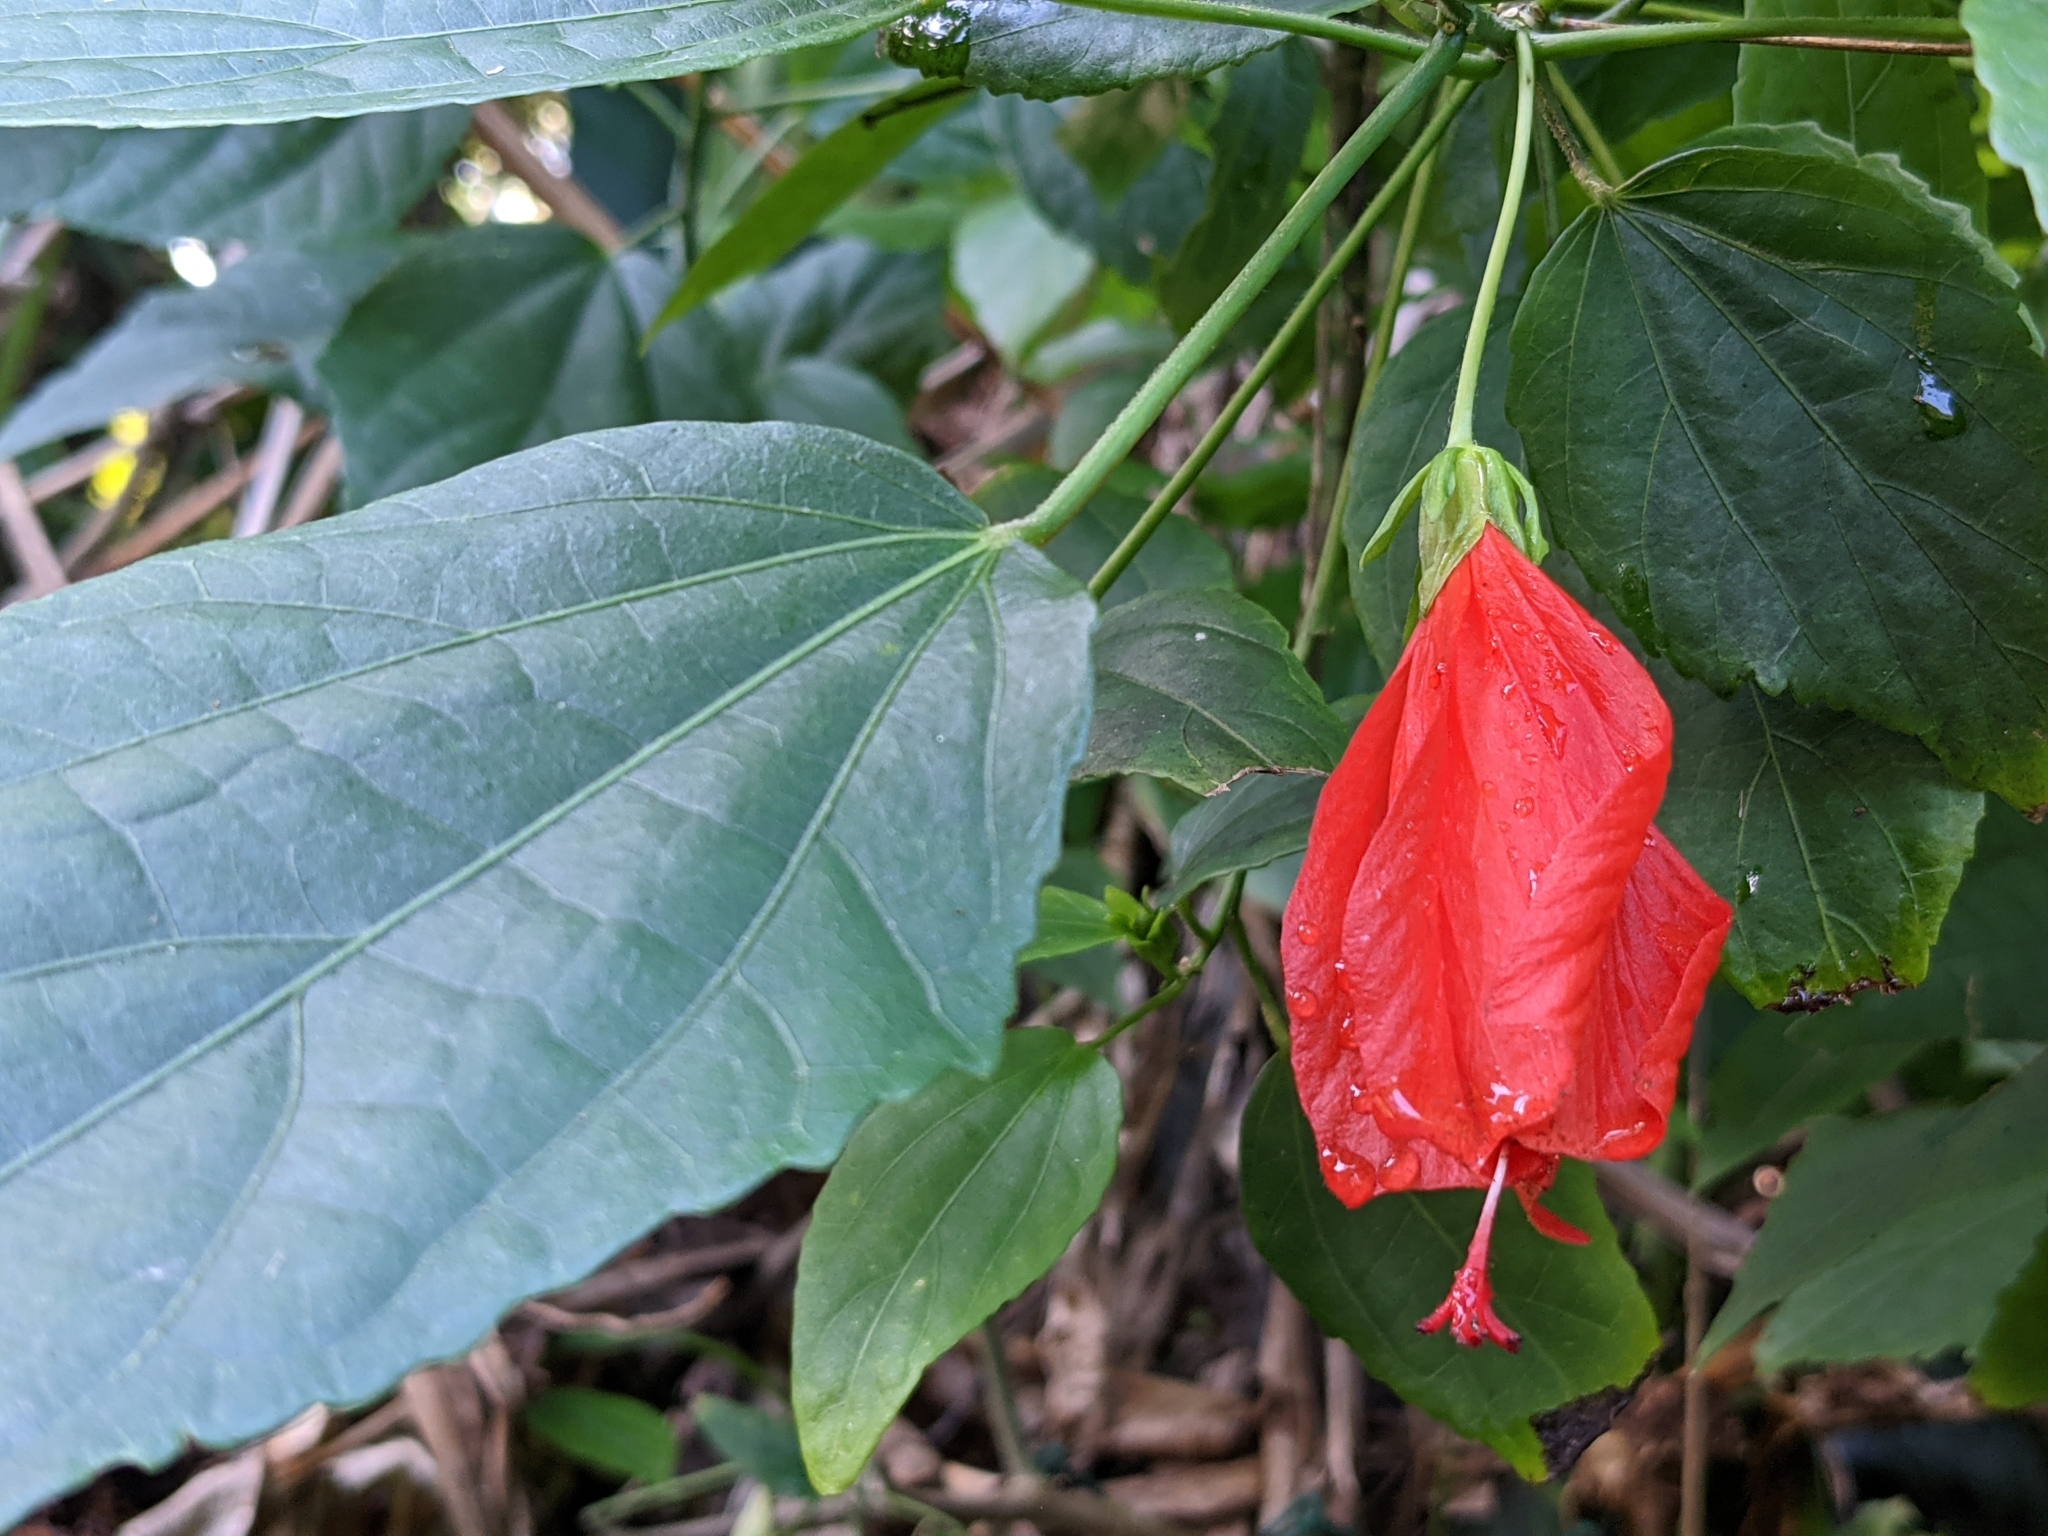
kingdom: Plantae
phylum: Tracheophyta
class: Magnoliopsida
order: Malvales
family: Malvaceae
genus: Malvaviscus
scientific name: Malvaviscus penduliflorus
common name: Mazapan
